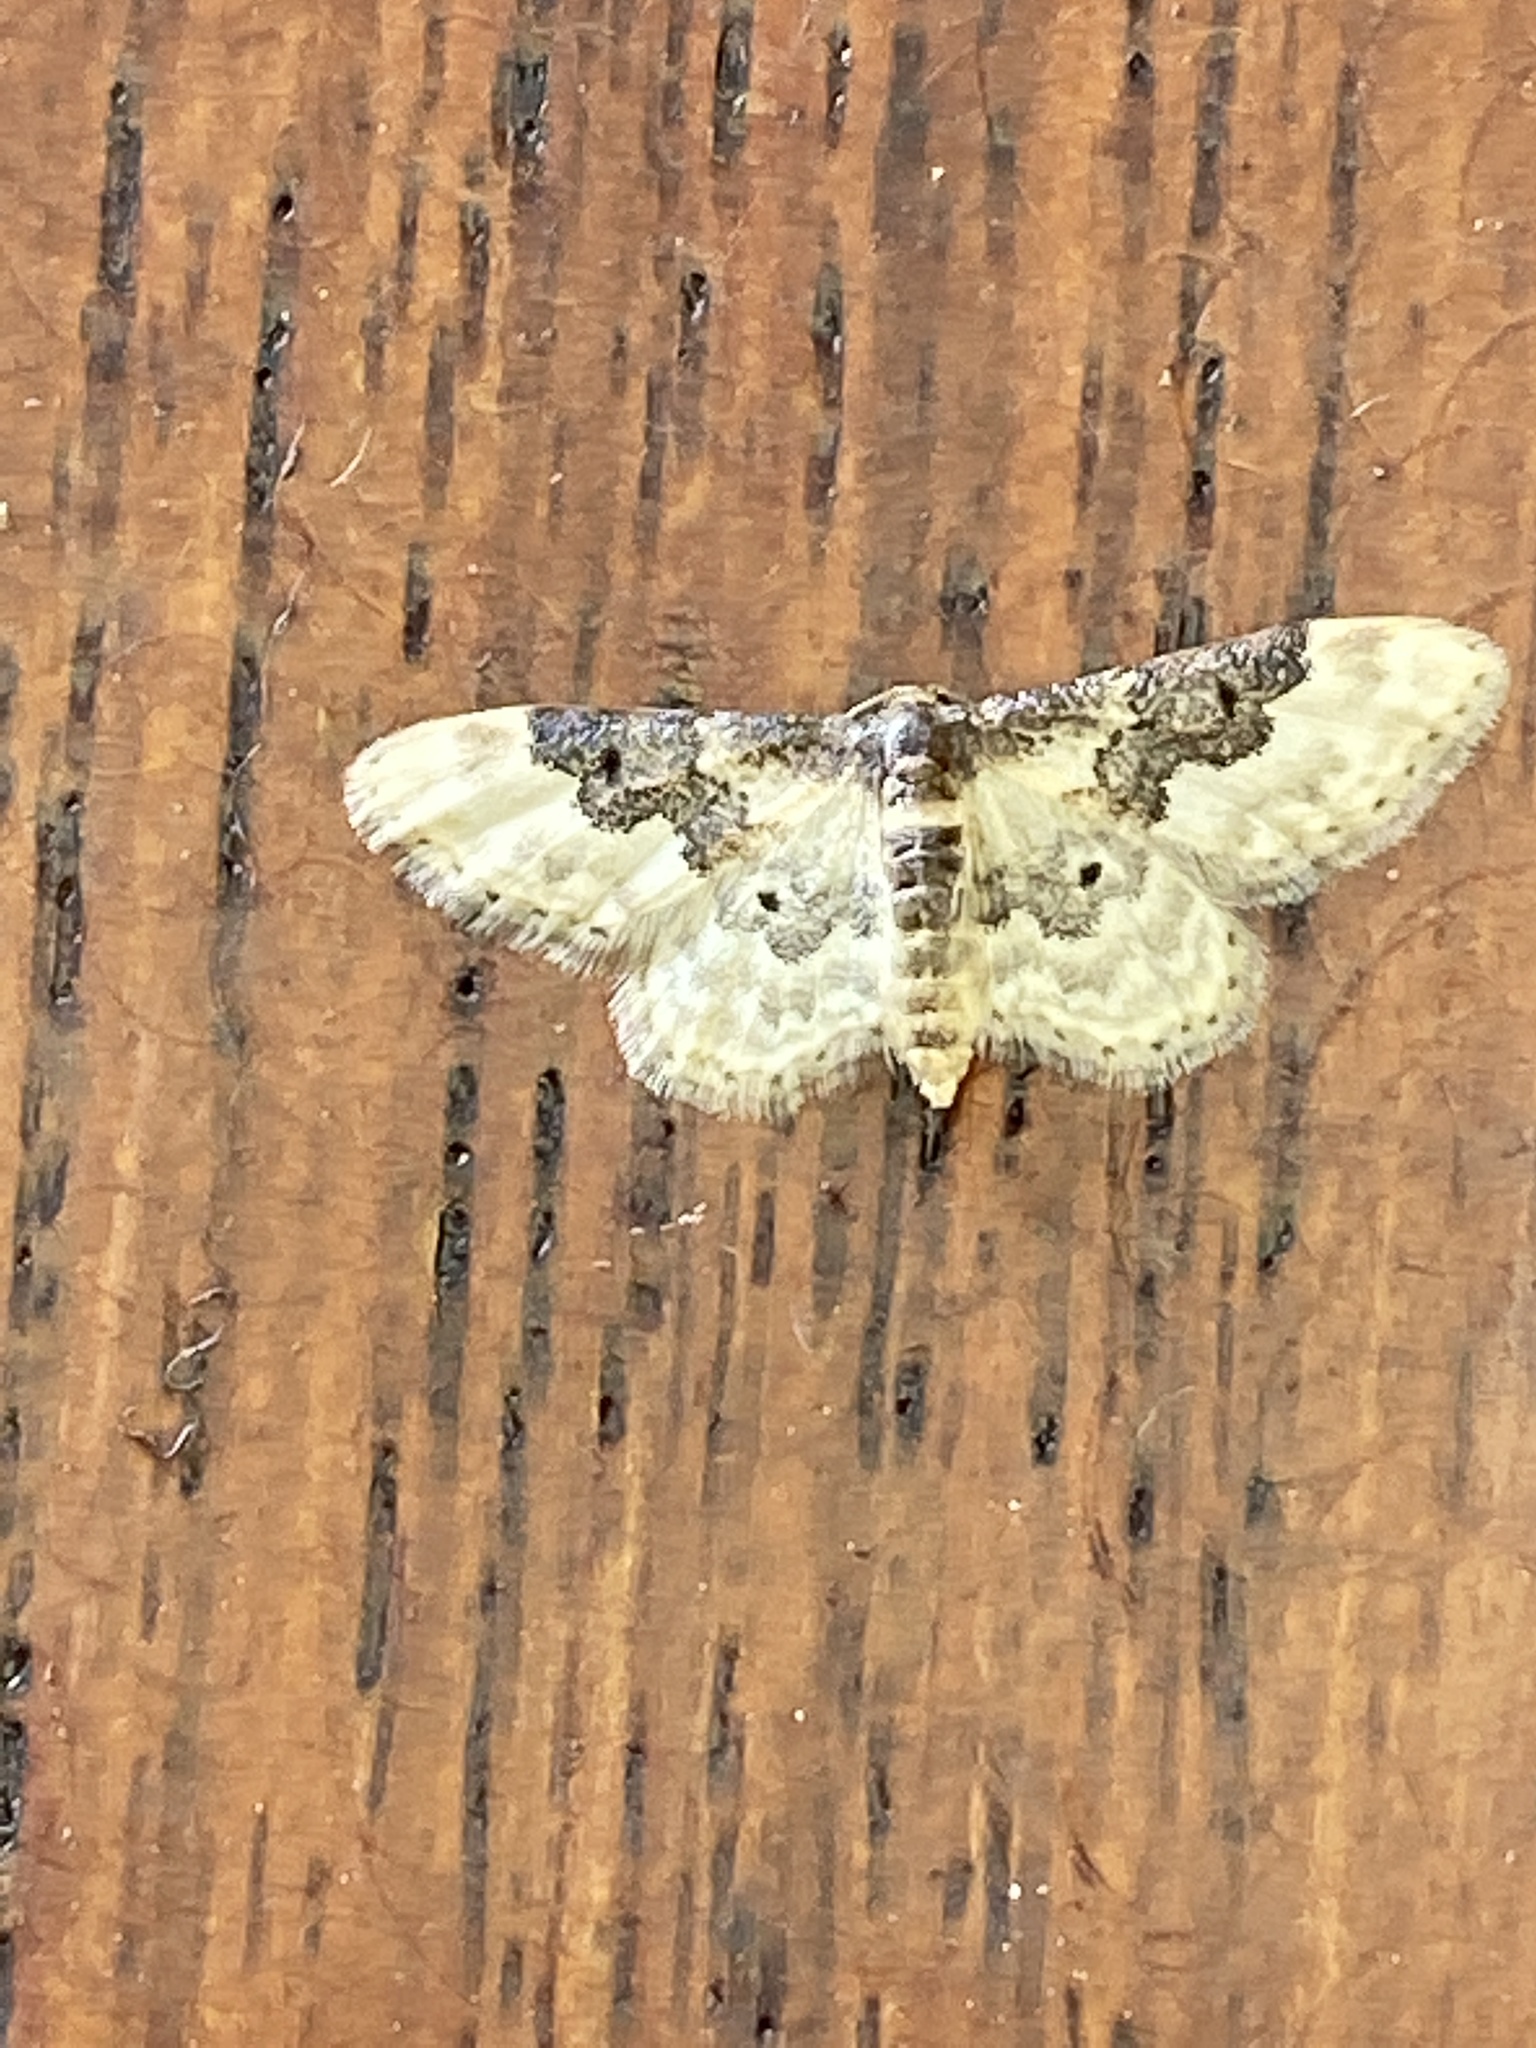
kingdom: Animalia
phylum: Arthropoda
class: Insecta
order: Lepidoptera
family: Geometridae
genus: Idaea
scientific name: Idaea rusticata
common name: Least carpet
